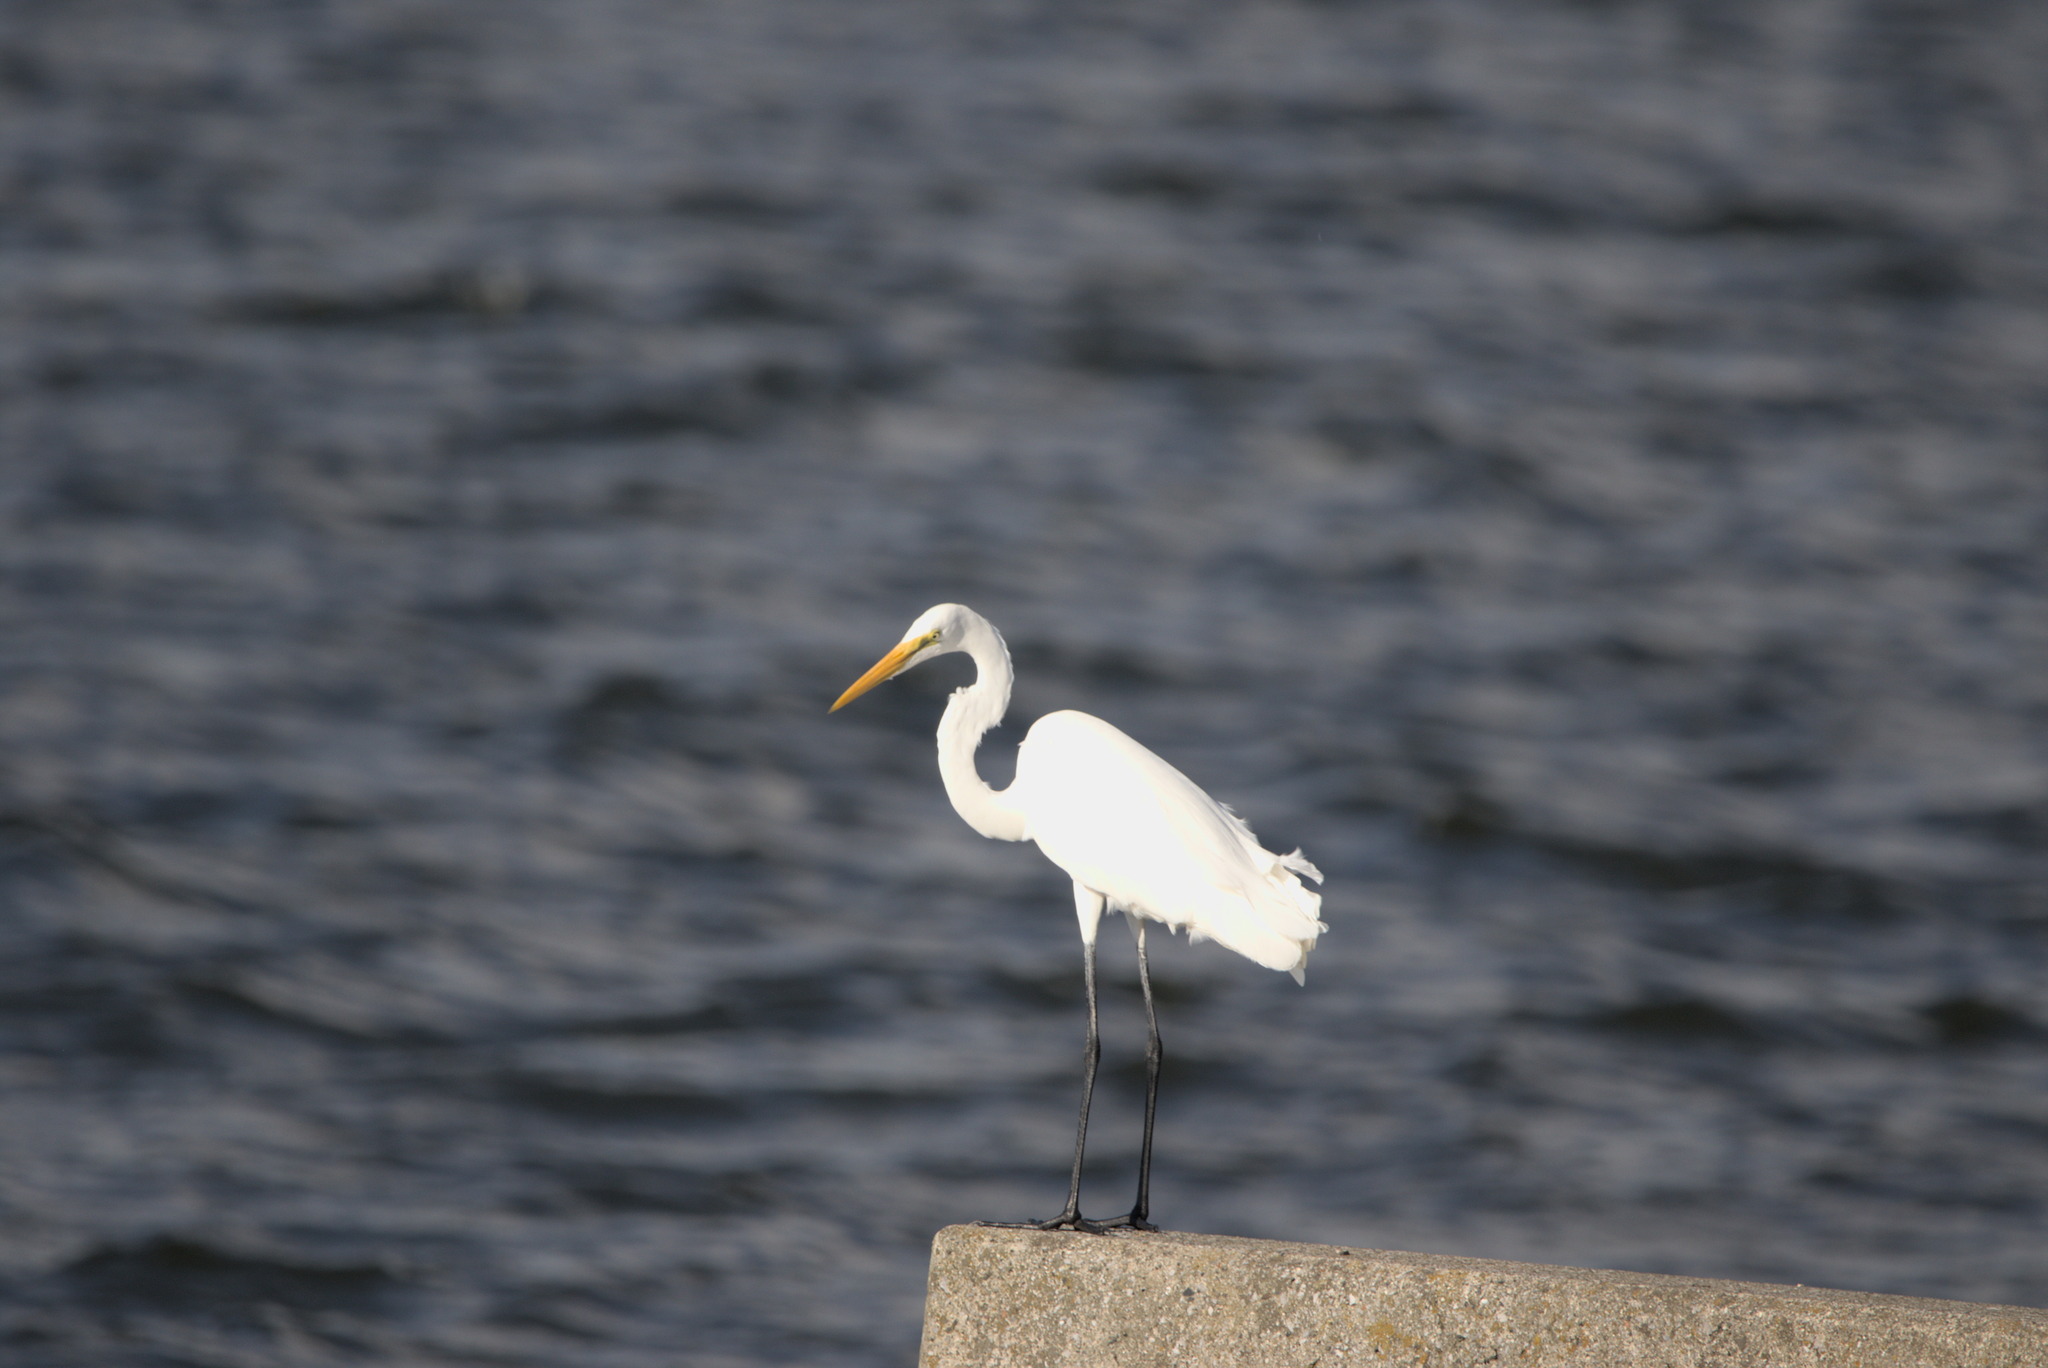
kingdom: Animalia
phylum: Chordata
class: Aves
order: Pelecaniformes
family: Ardeidae
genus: Ardea
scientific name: Ardea alba
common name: Great egret
